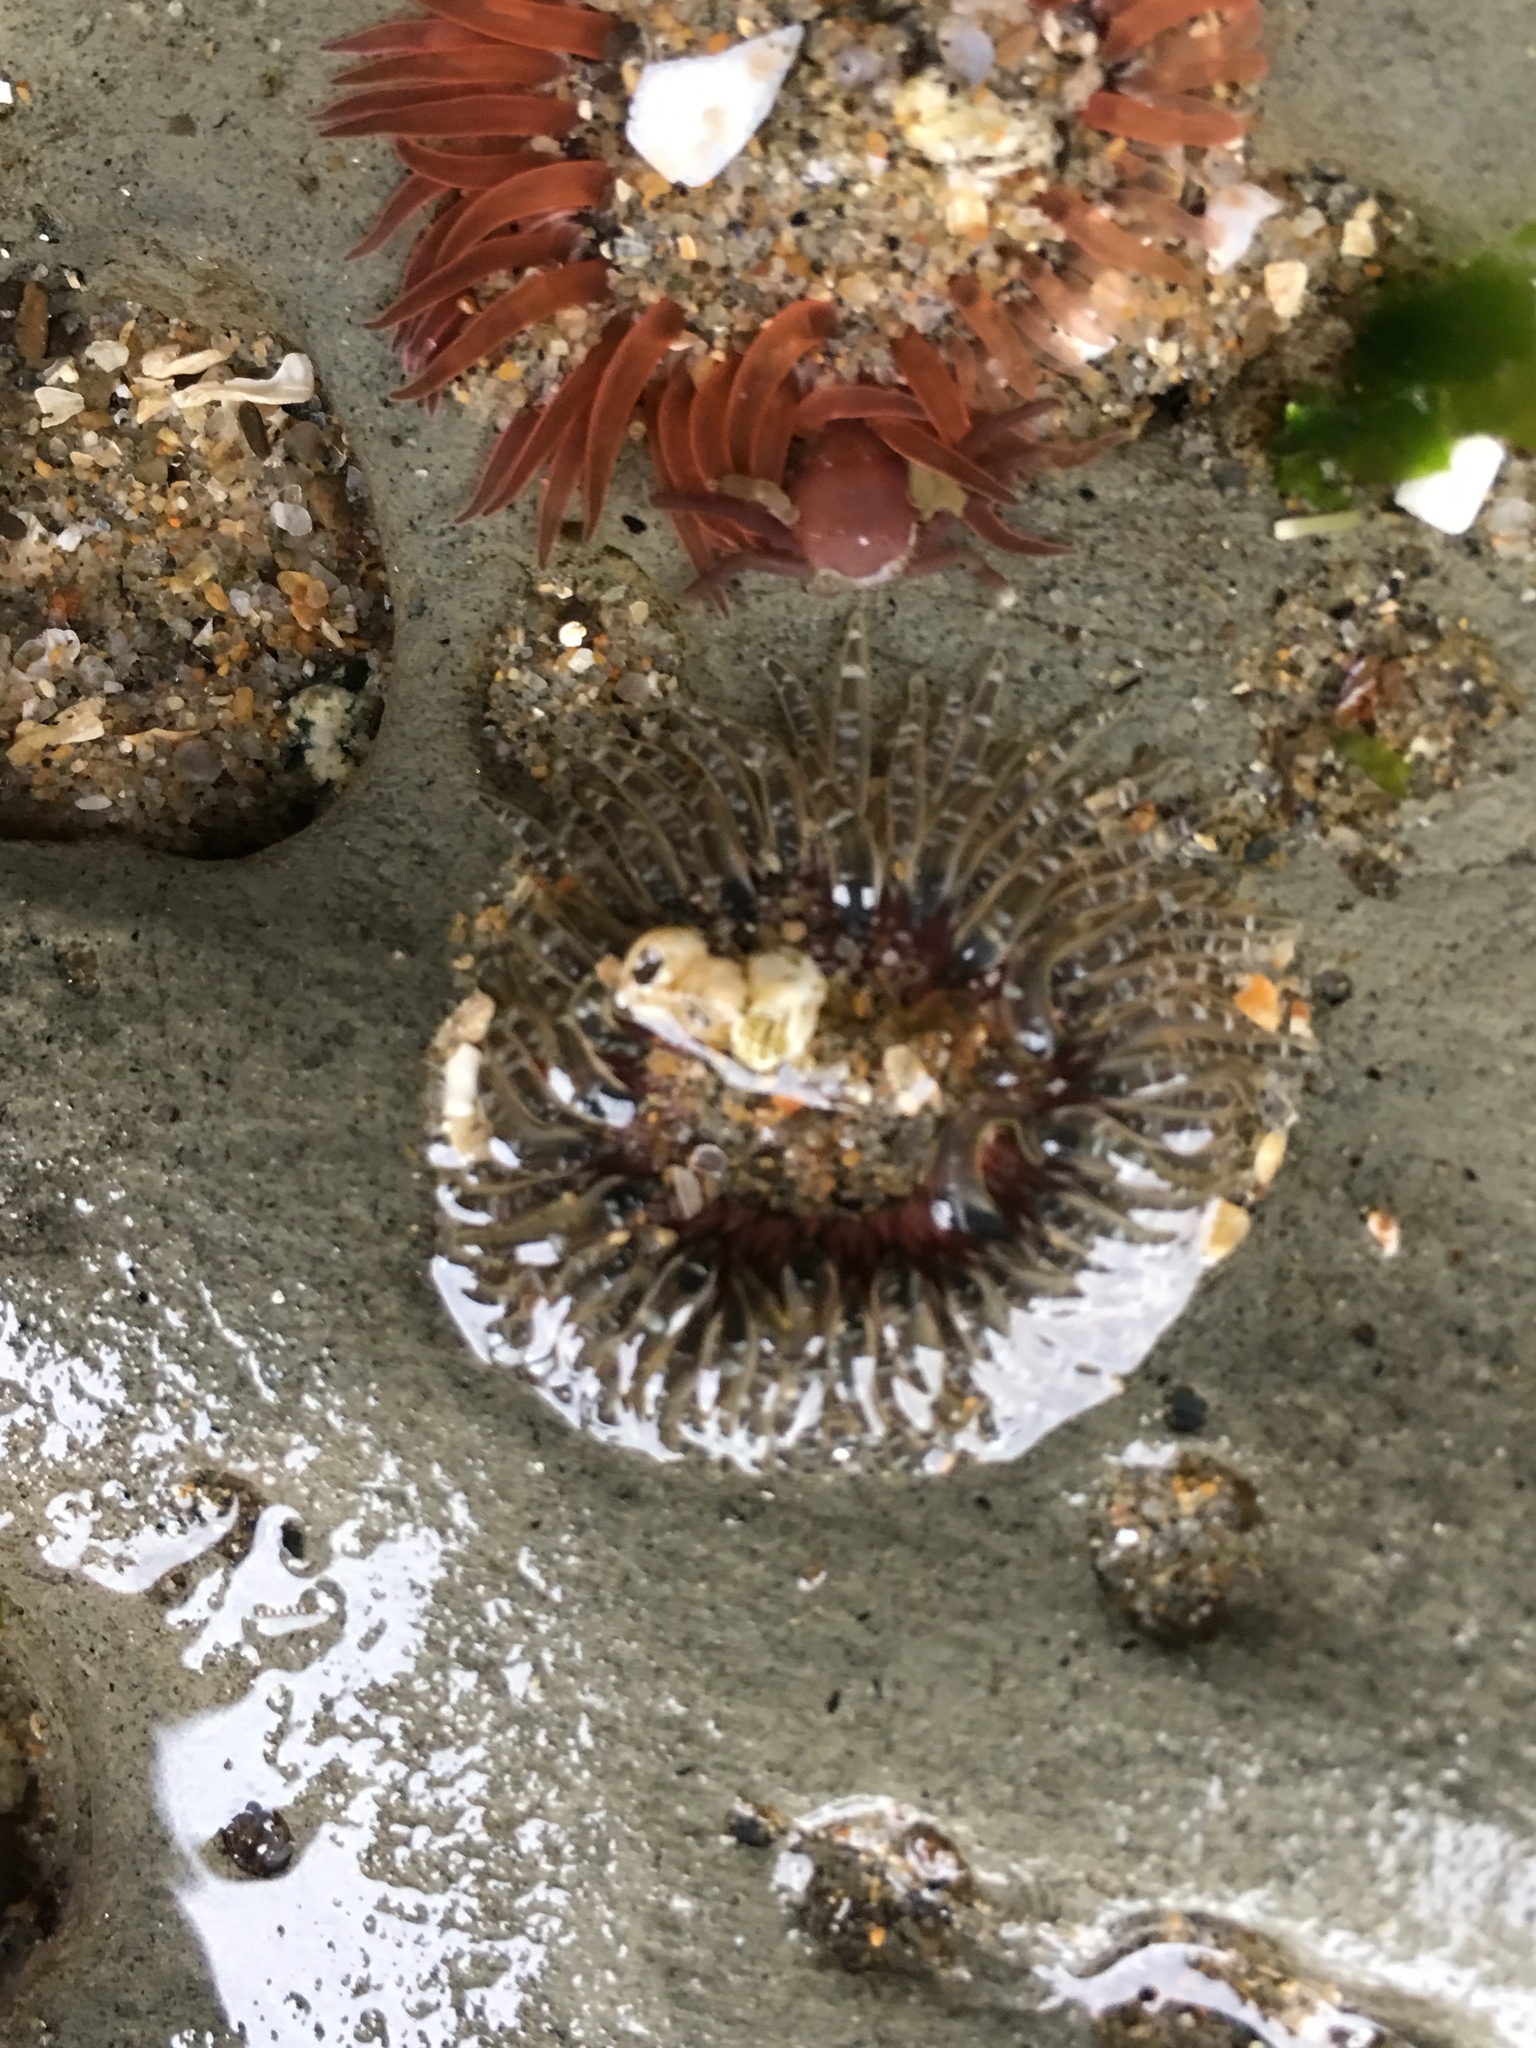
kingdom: Animalia
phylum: Cnidaria
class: Anthozoa
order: Actiniaria
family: Actiniidae
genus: Anthopleura
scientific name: Anthopleura artemisia
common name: Buried sea anemone
